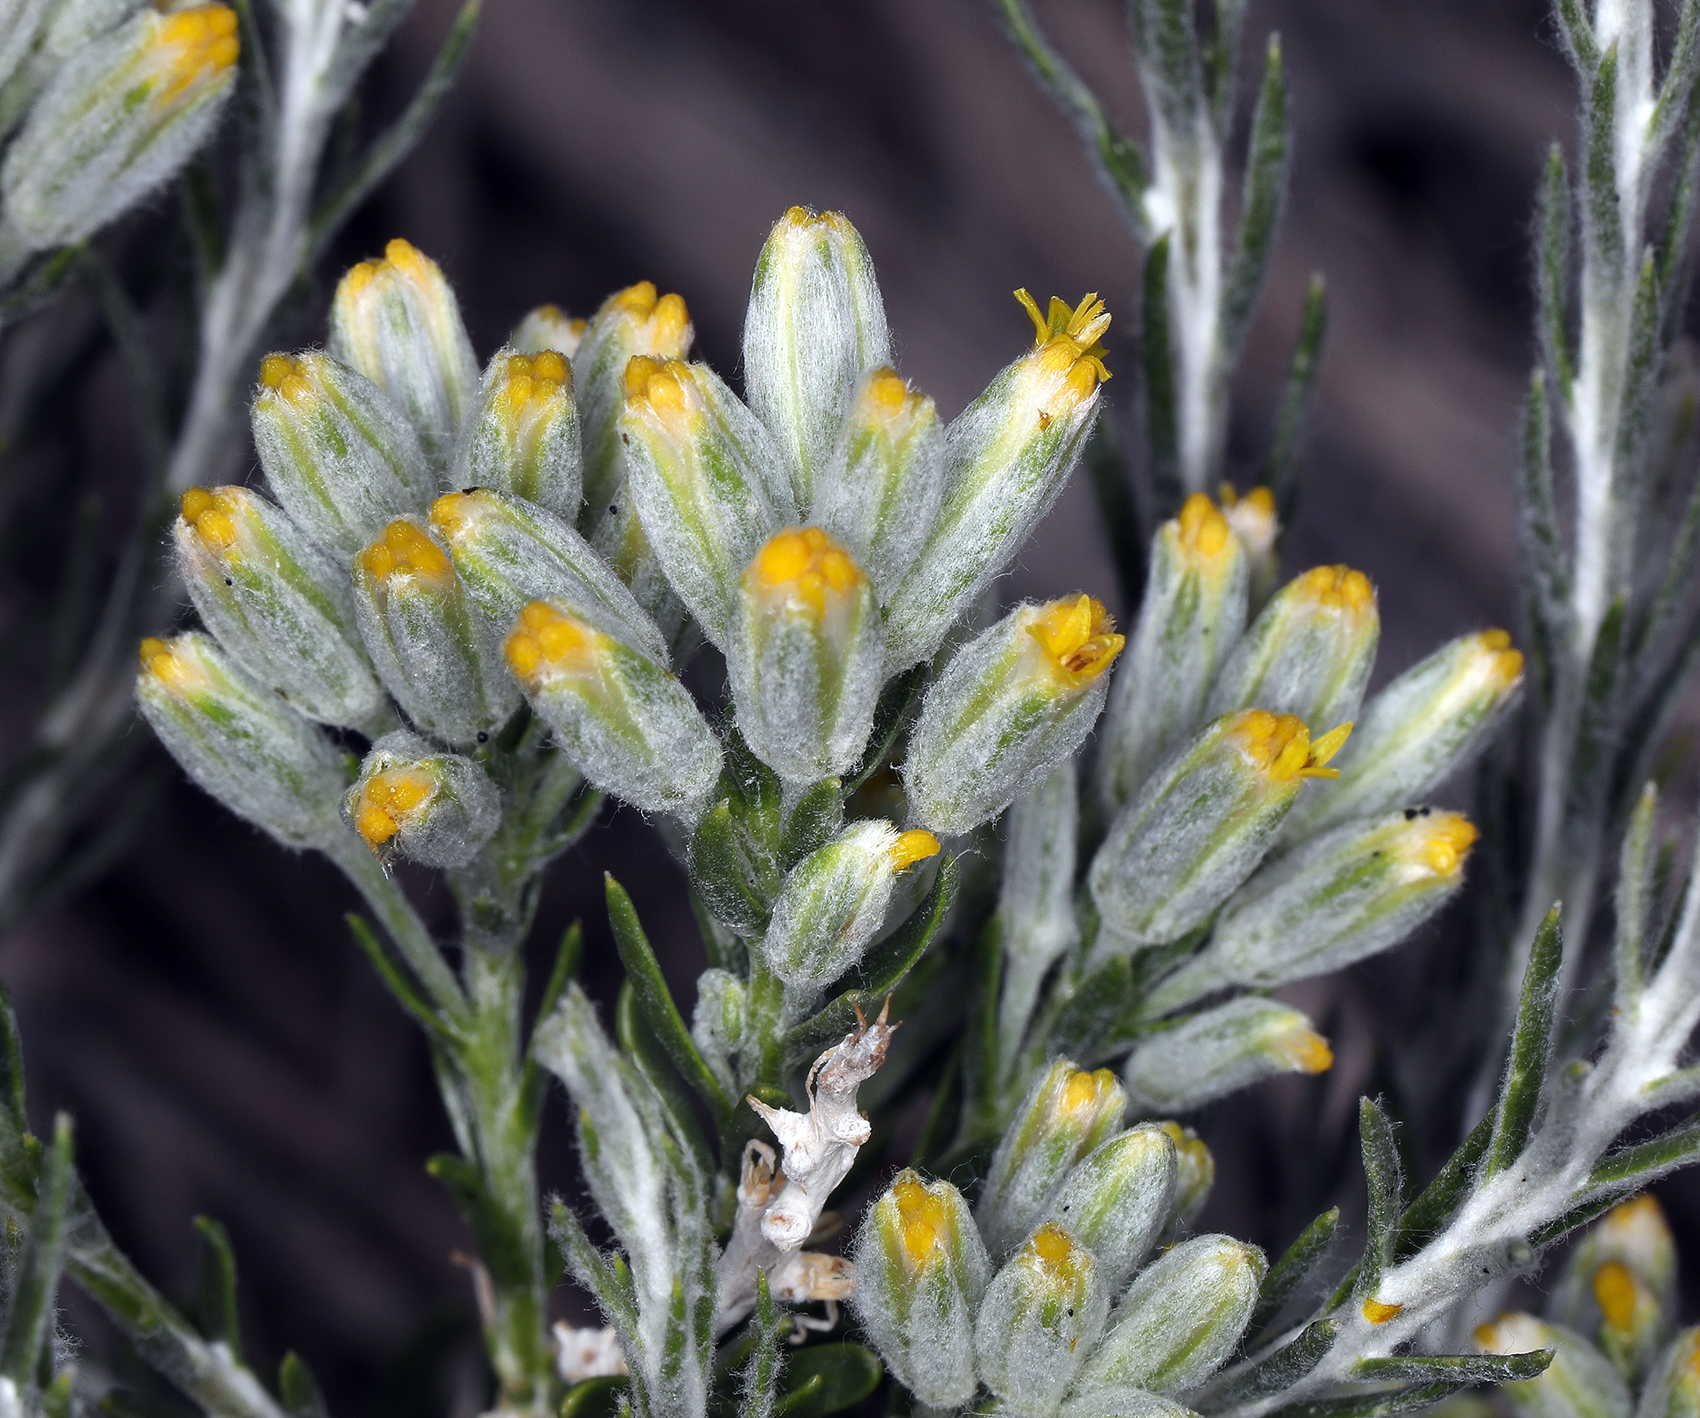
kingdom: Plantae
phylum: Tracheophyta
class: Magnoliopsida
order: Asterales
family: Asteraceae
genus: Tetradymia
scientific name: Tetradymia glabrata
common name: Smooth tetradymia
